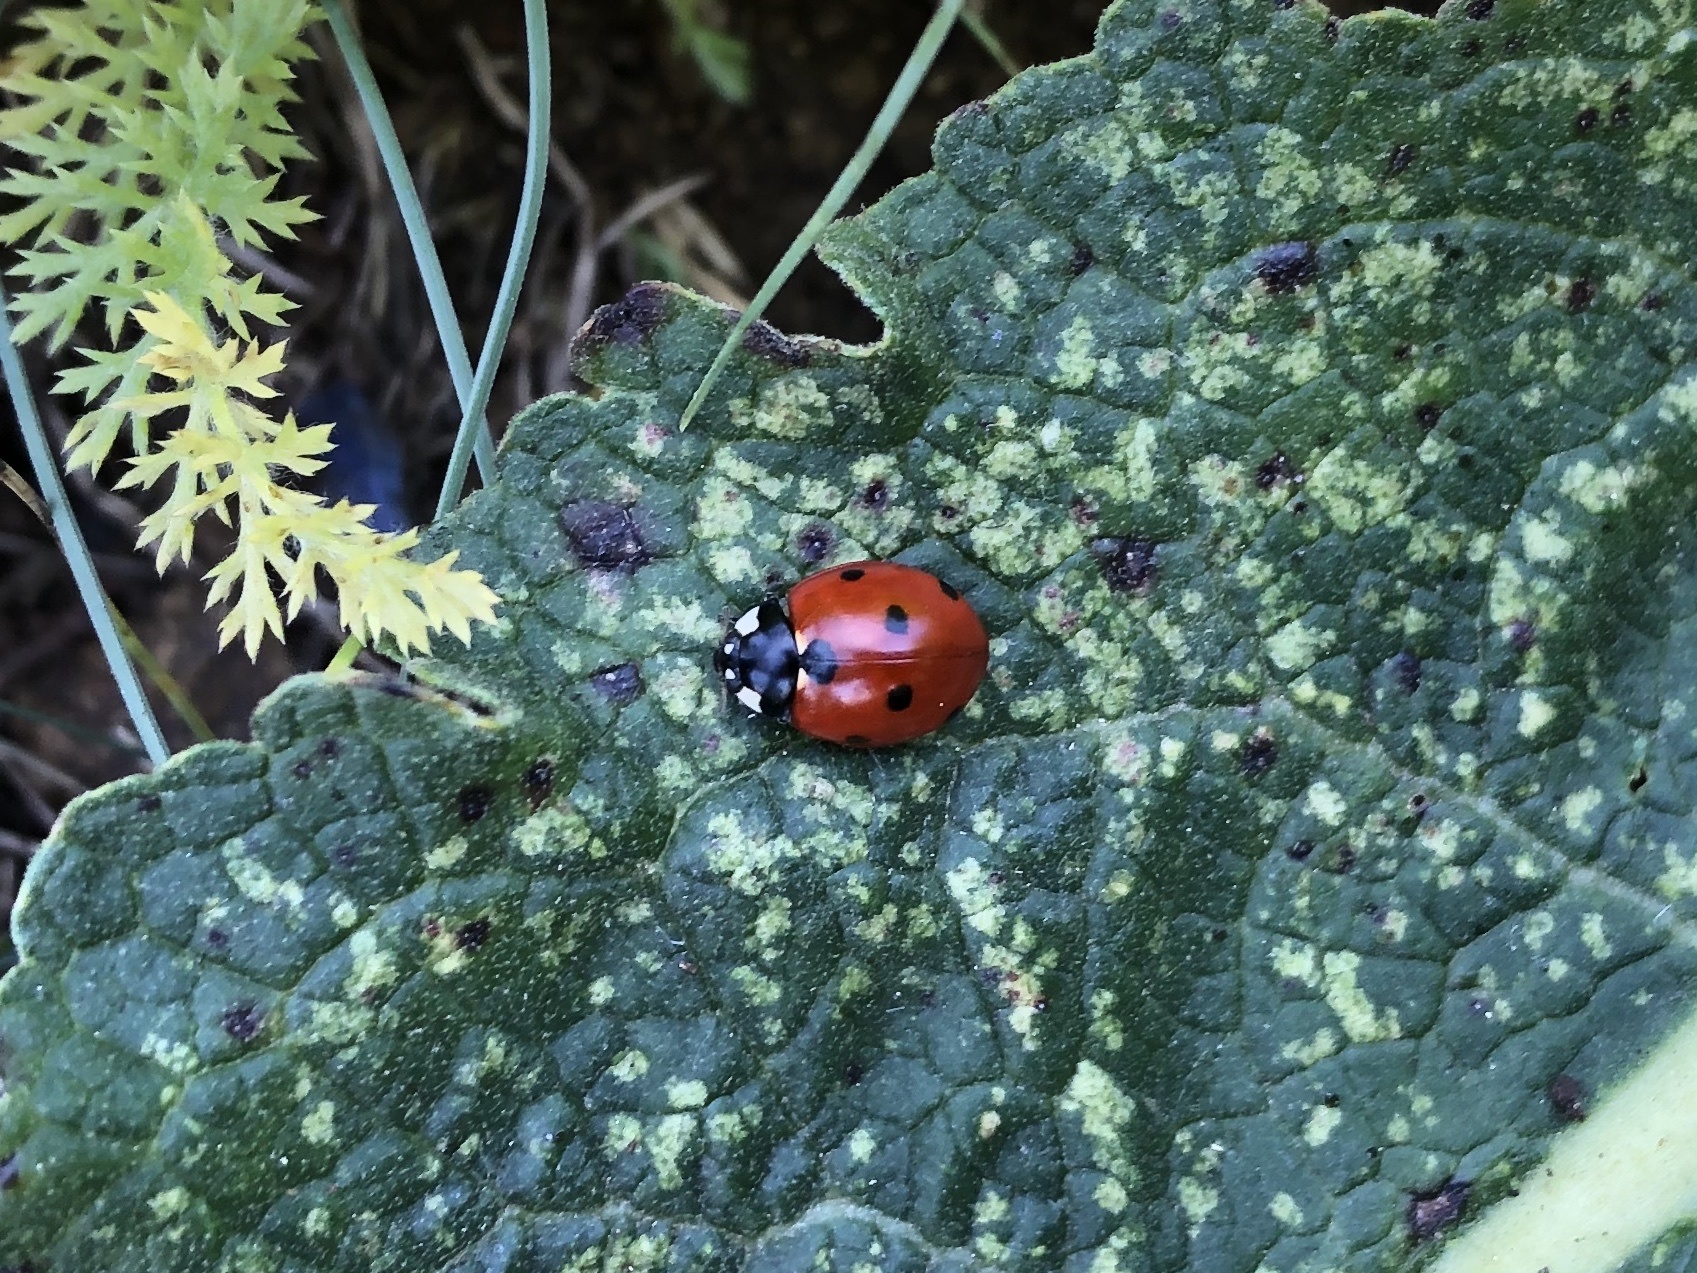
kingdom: Animalia
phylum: Arthropoda
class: Insecta
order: Coleoptera
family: Coccinellidae
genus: Coccinella
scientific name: Coccinella septempunctata
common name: Sevenspotted lady beetle
